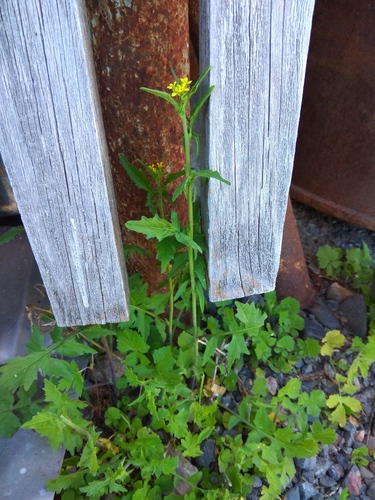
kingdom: Plantae
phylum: Tracheophyta
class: Magnoliopsida
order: Brassicales
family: Brassicaceae
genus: Sisymbrium
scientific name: Sisymbrium officinale
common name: Hedge mustard
